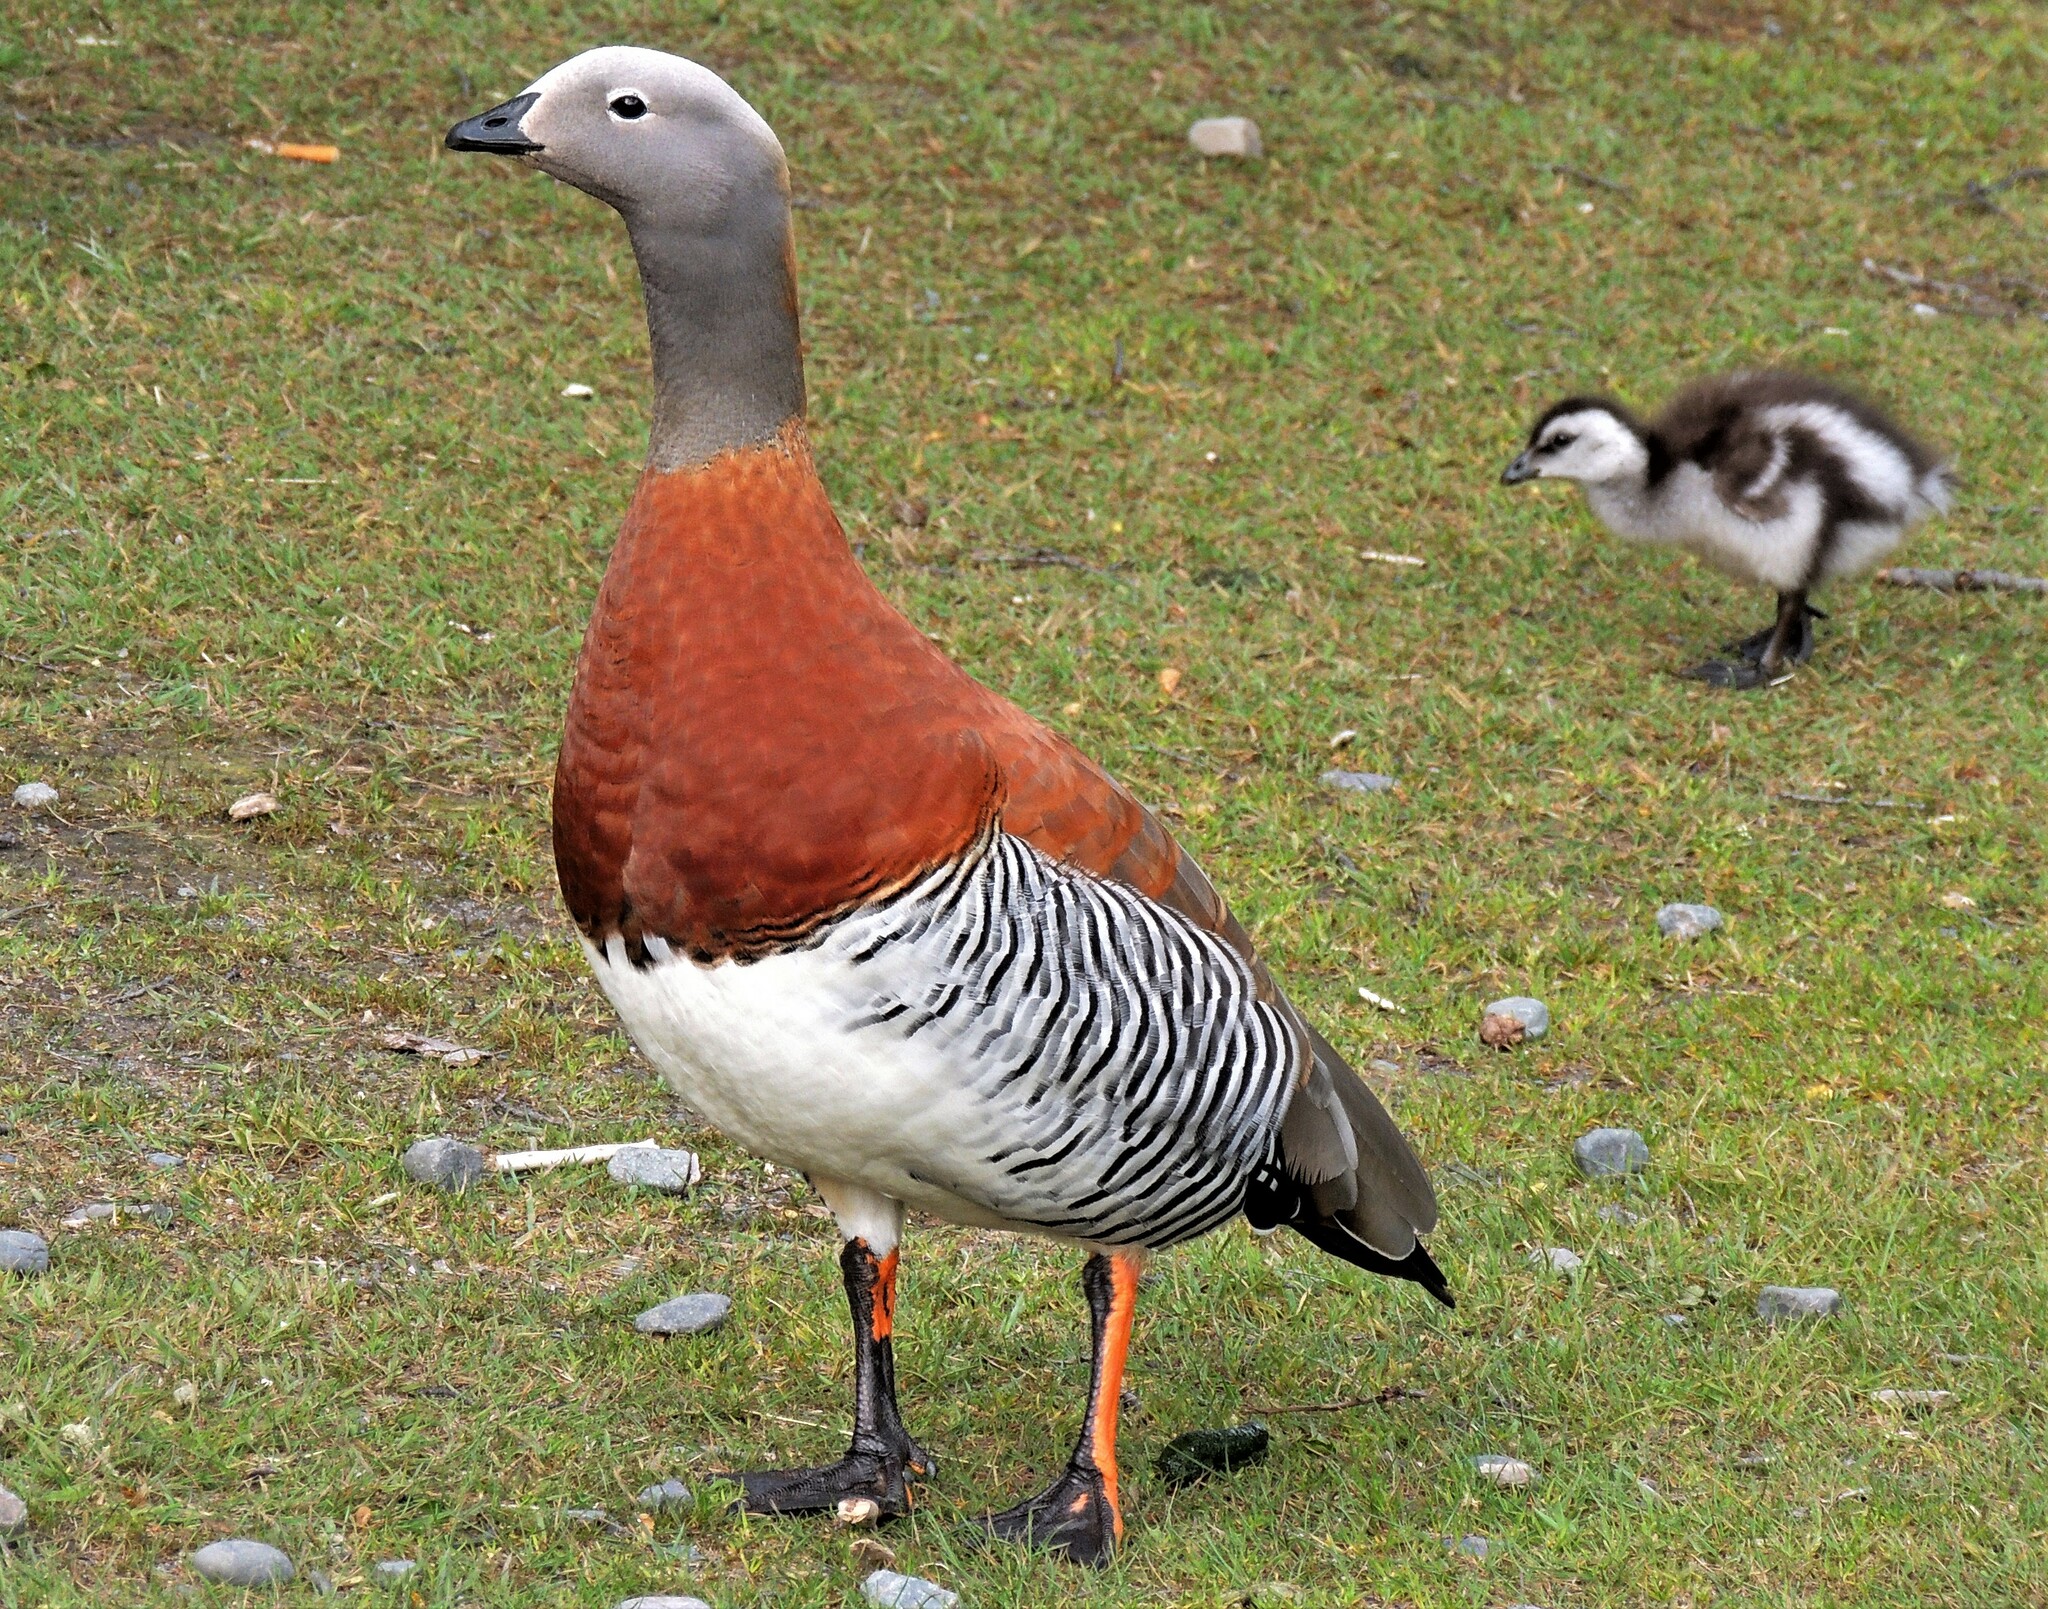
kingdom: Animalia
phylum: Chordata
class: Aves
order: Anseriformes
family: Anatidae
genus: Chloephaga
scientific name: Chloephaga poliocephala
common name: Ashy-headed goose
